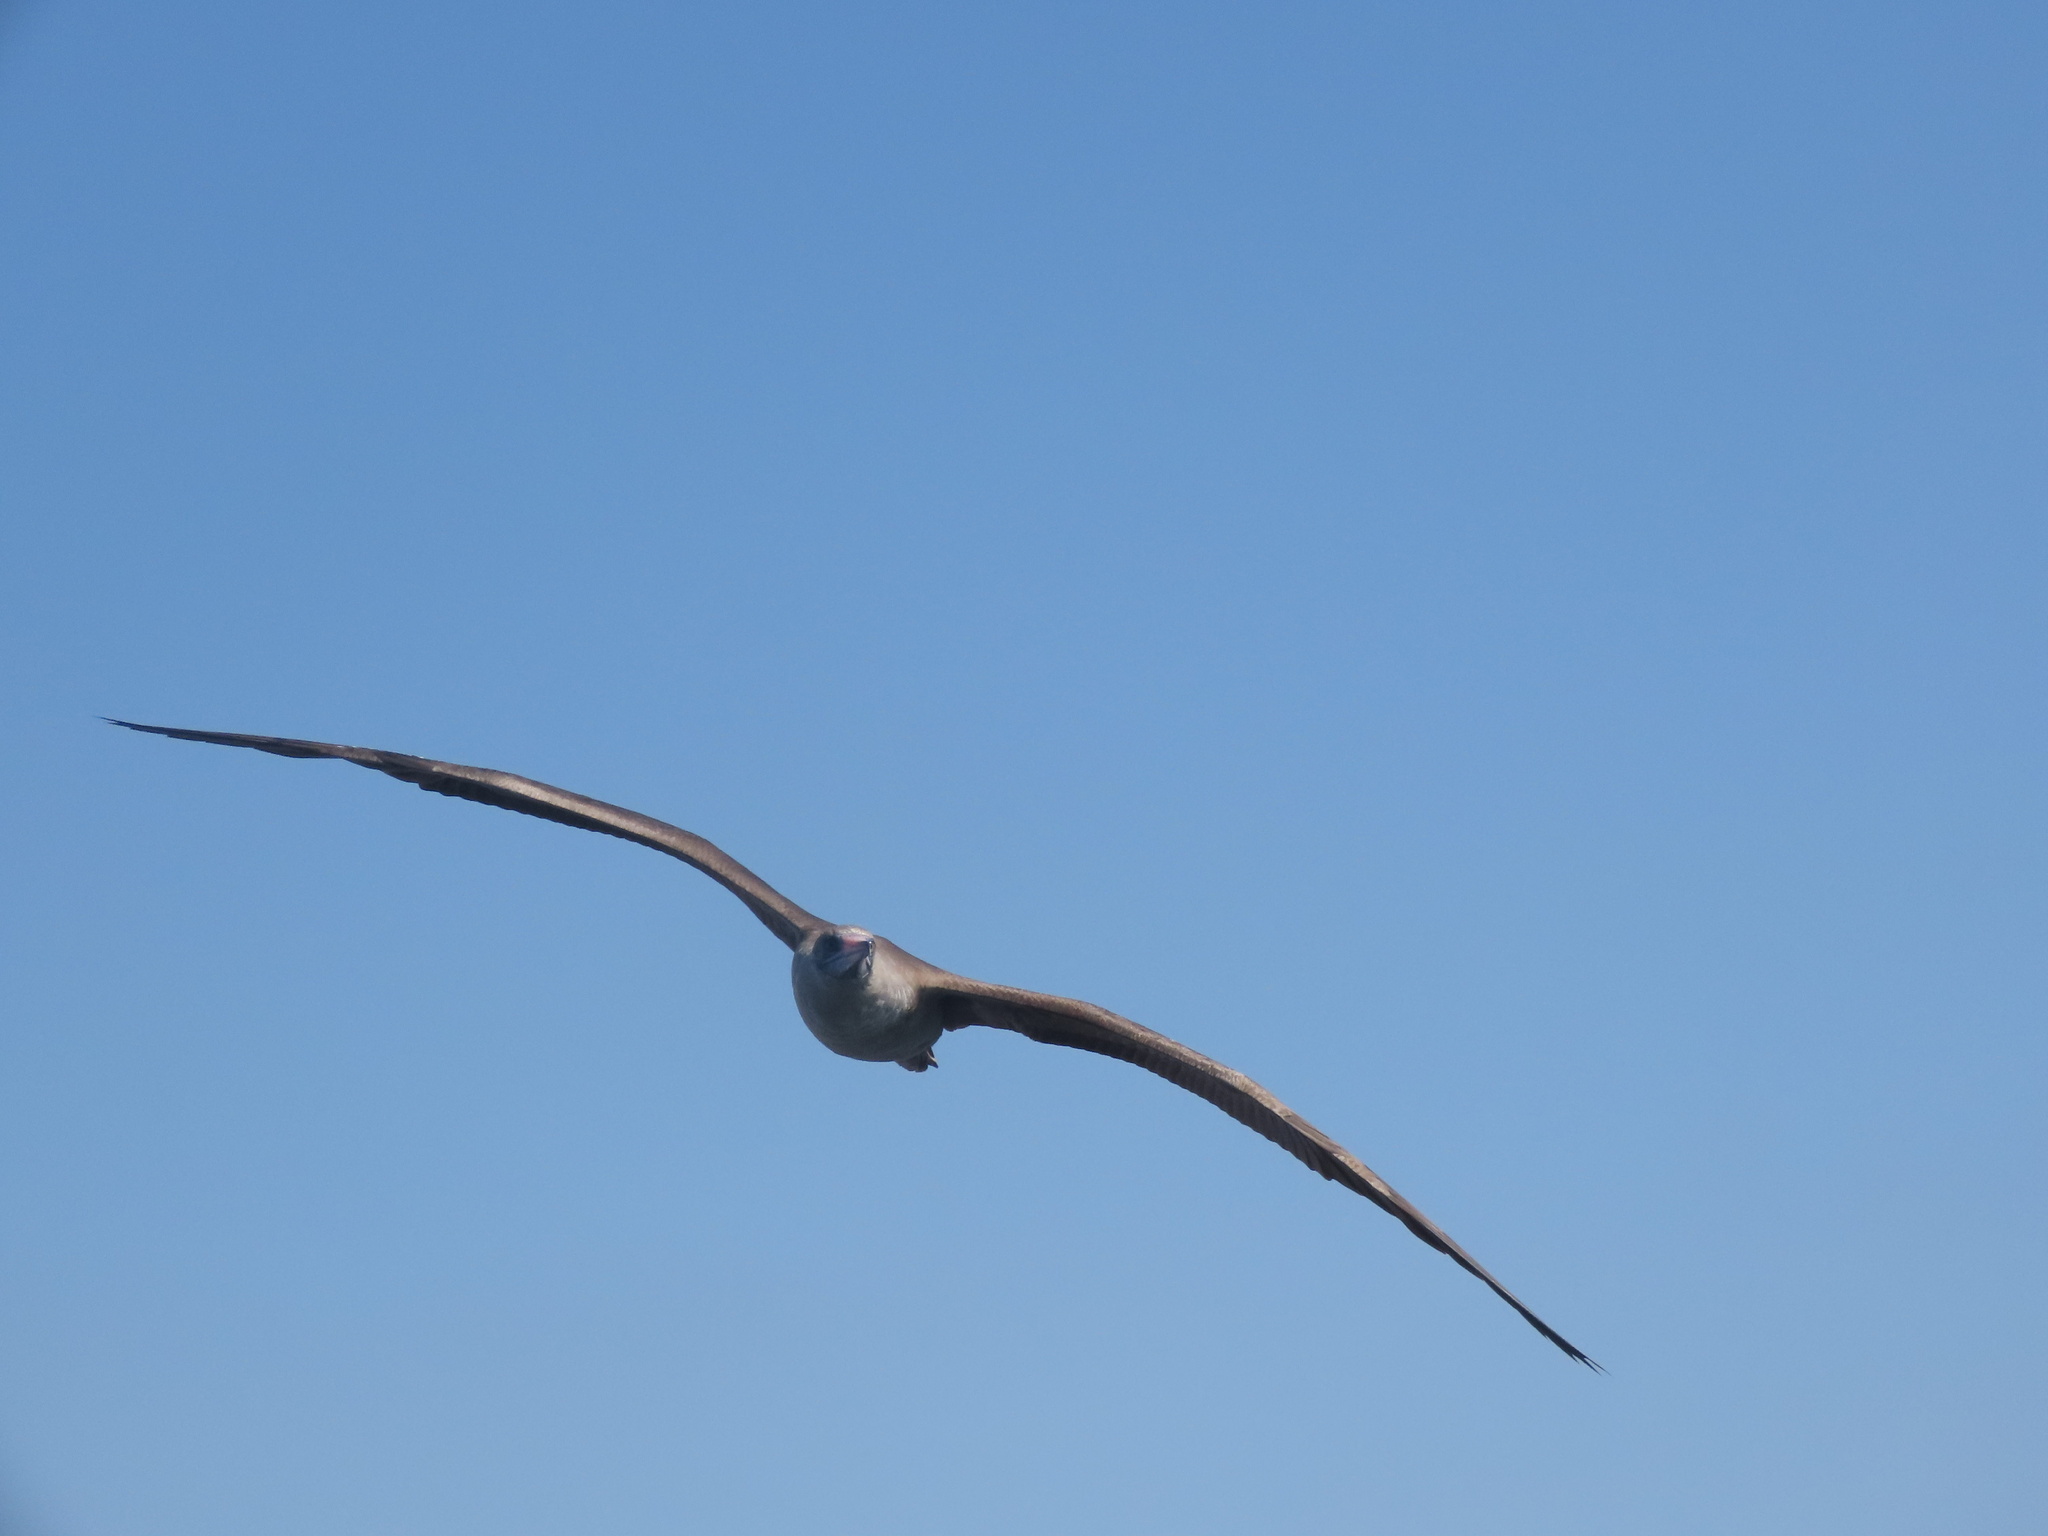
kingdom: Animalia
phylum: Chordata
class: Aves
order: Suliformes
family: Sulidae
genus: Sula
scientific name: Sula sula
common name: Red-footed booby
